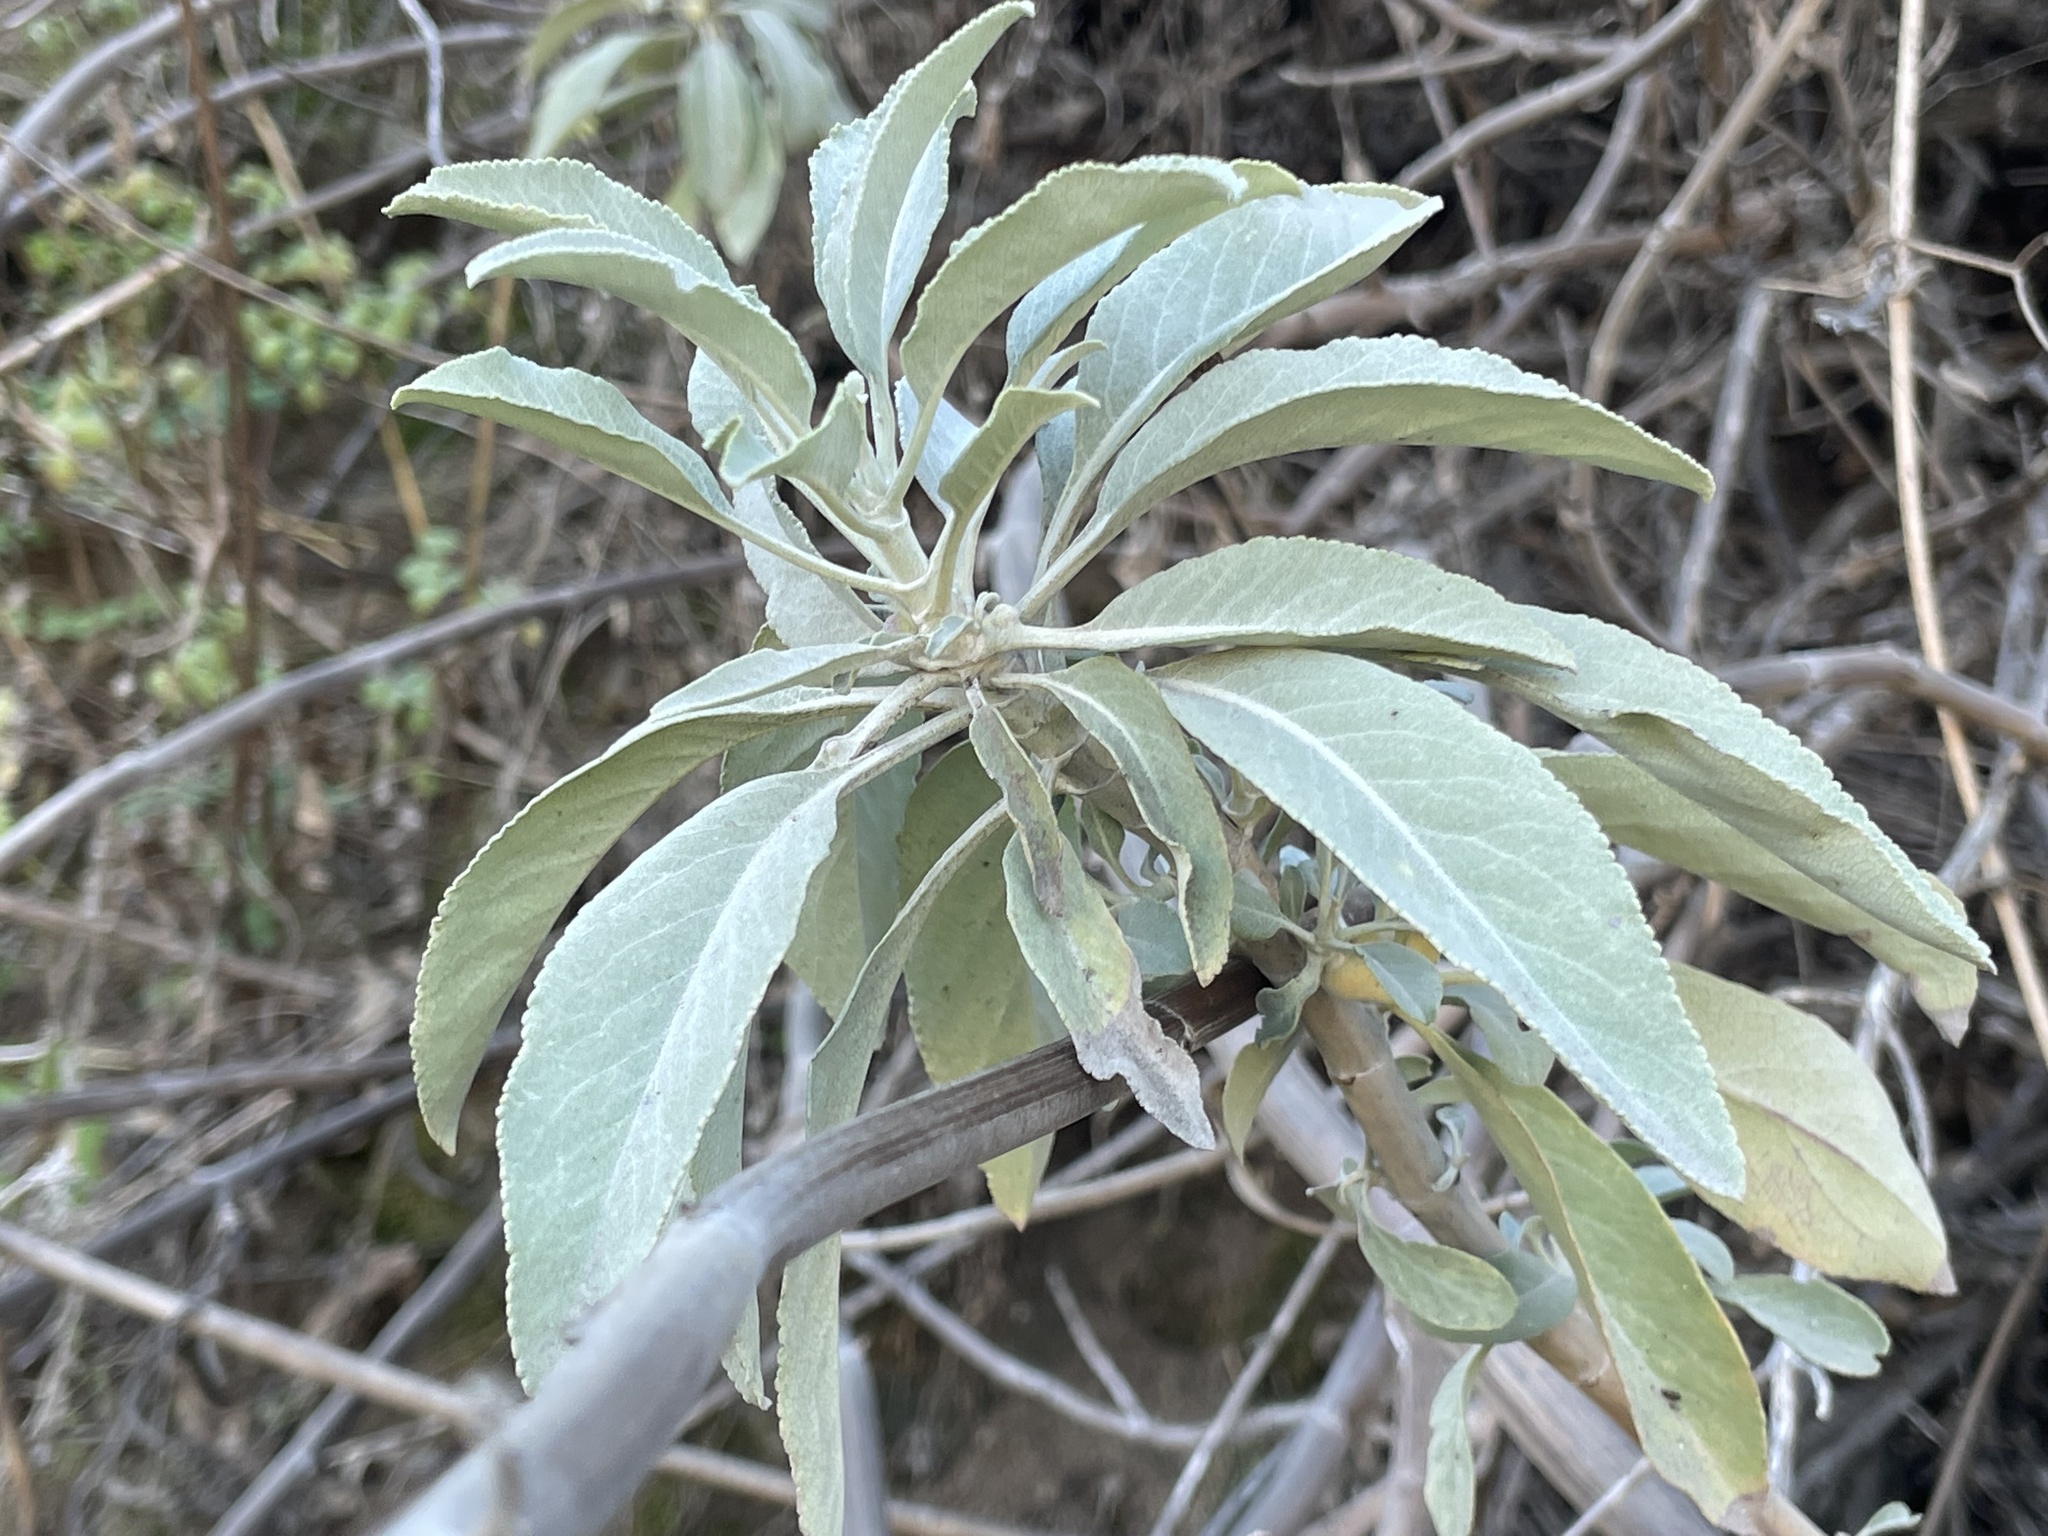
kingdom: Plantae
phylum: Tracheophyta
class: Magnoliopsida
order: Lamiales
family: Lamiaceae
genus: Salvia
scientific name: Salvia apiana
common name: White sage
